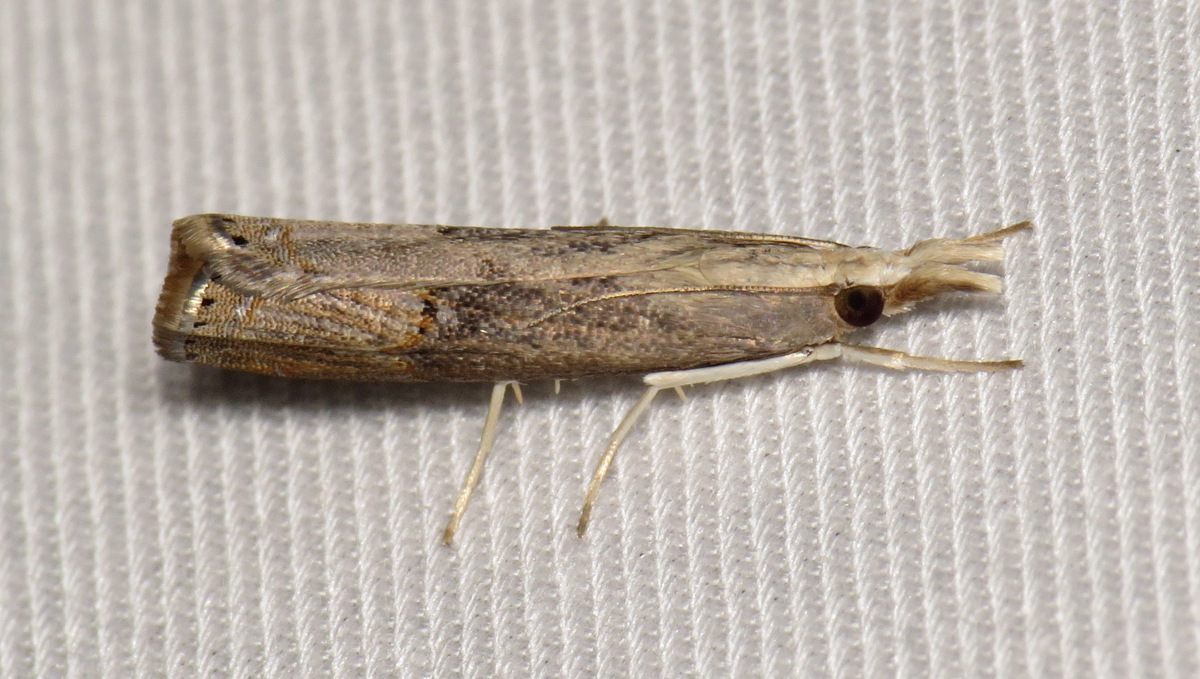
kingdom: Animalia
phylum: Arthropoda
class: Insecta
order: Lepidoptera
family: Crambidae
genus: Parapediasia
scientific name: Parapediasia teterellus
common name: Bluegrass webworm moth
